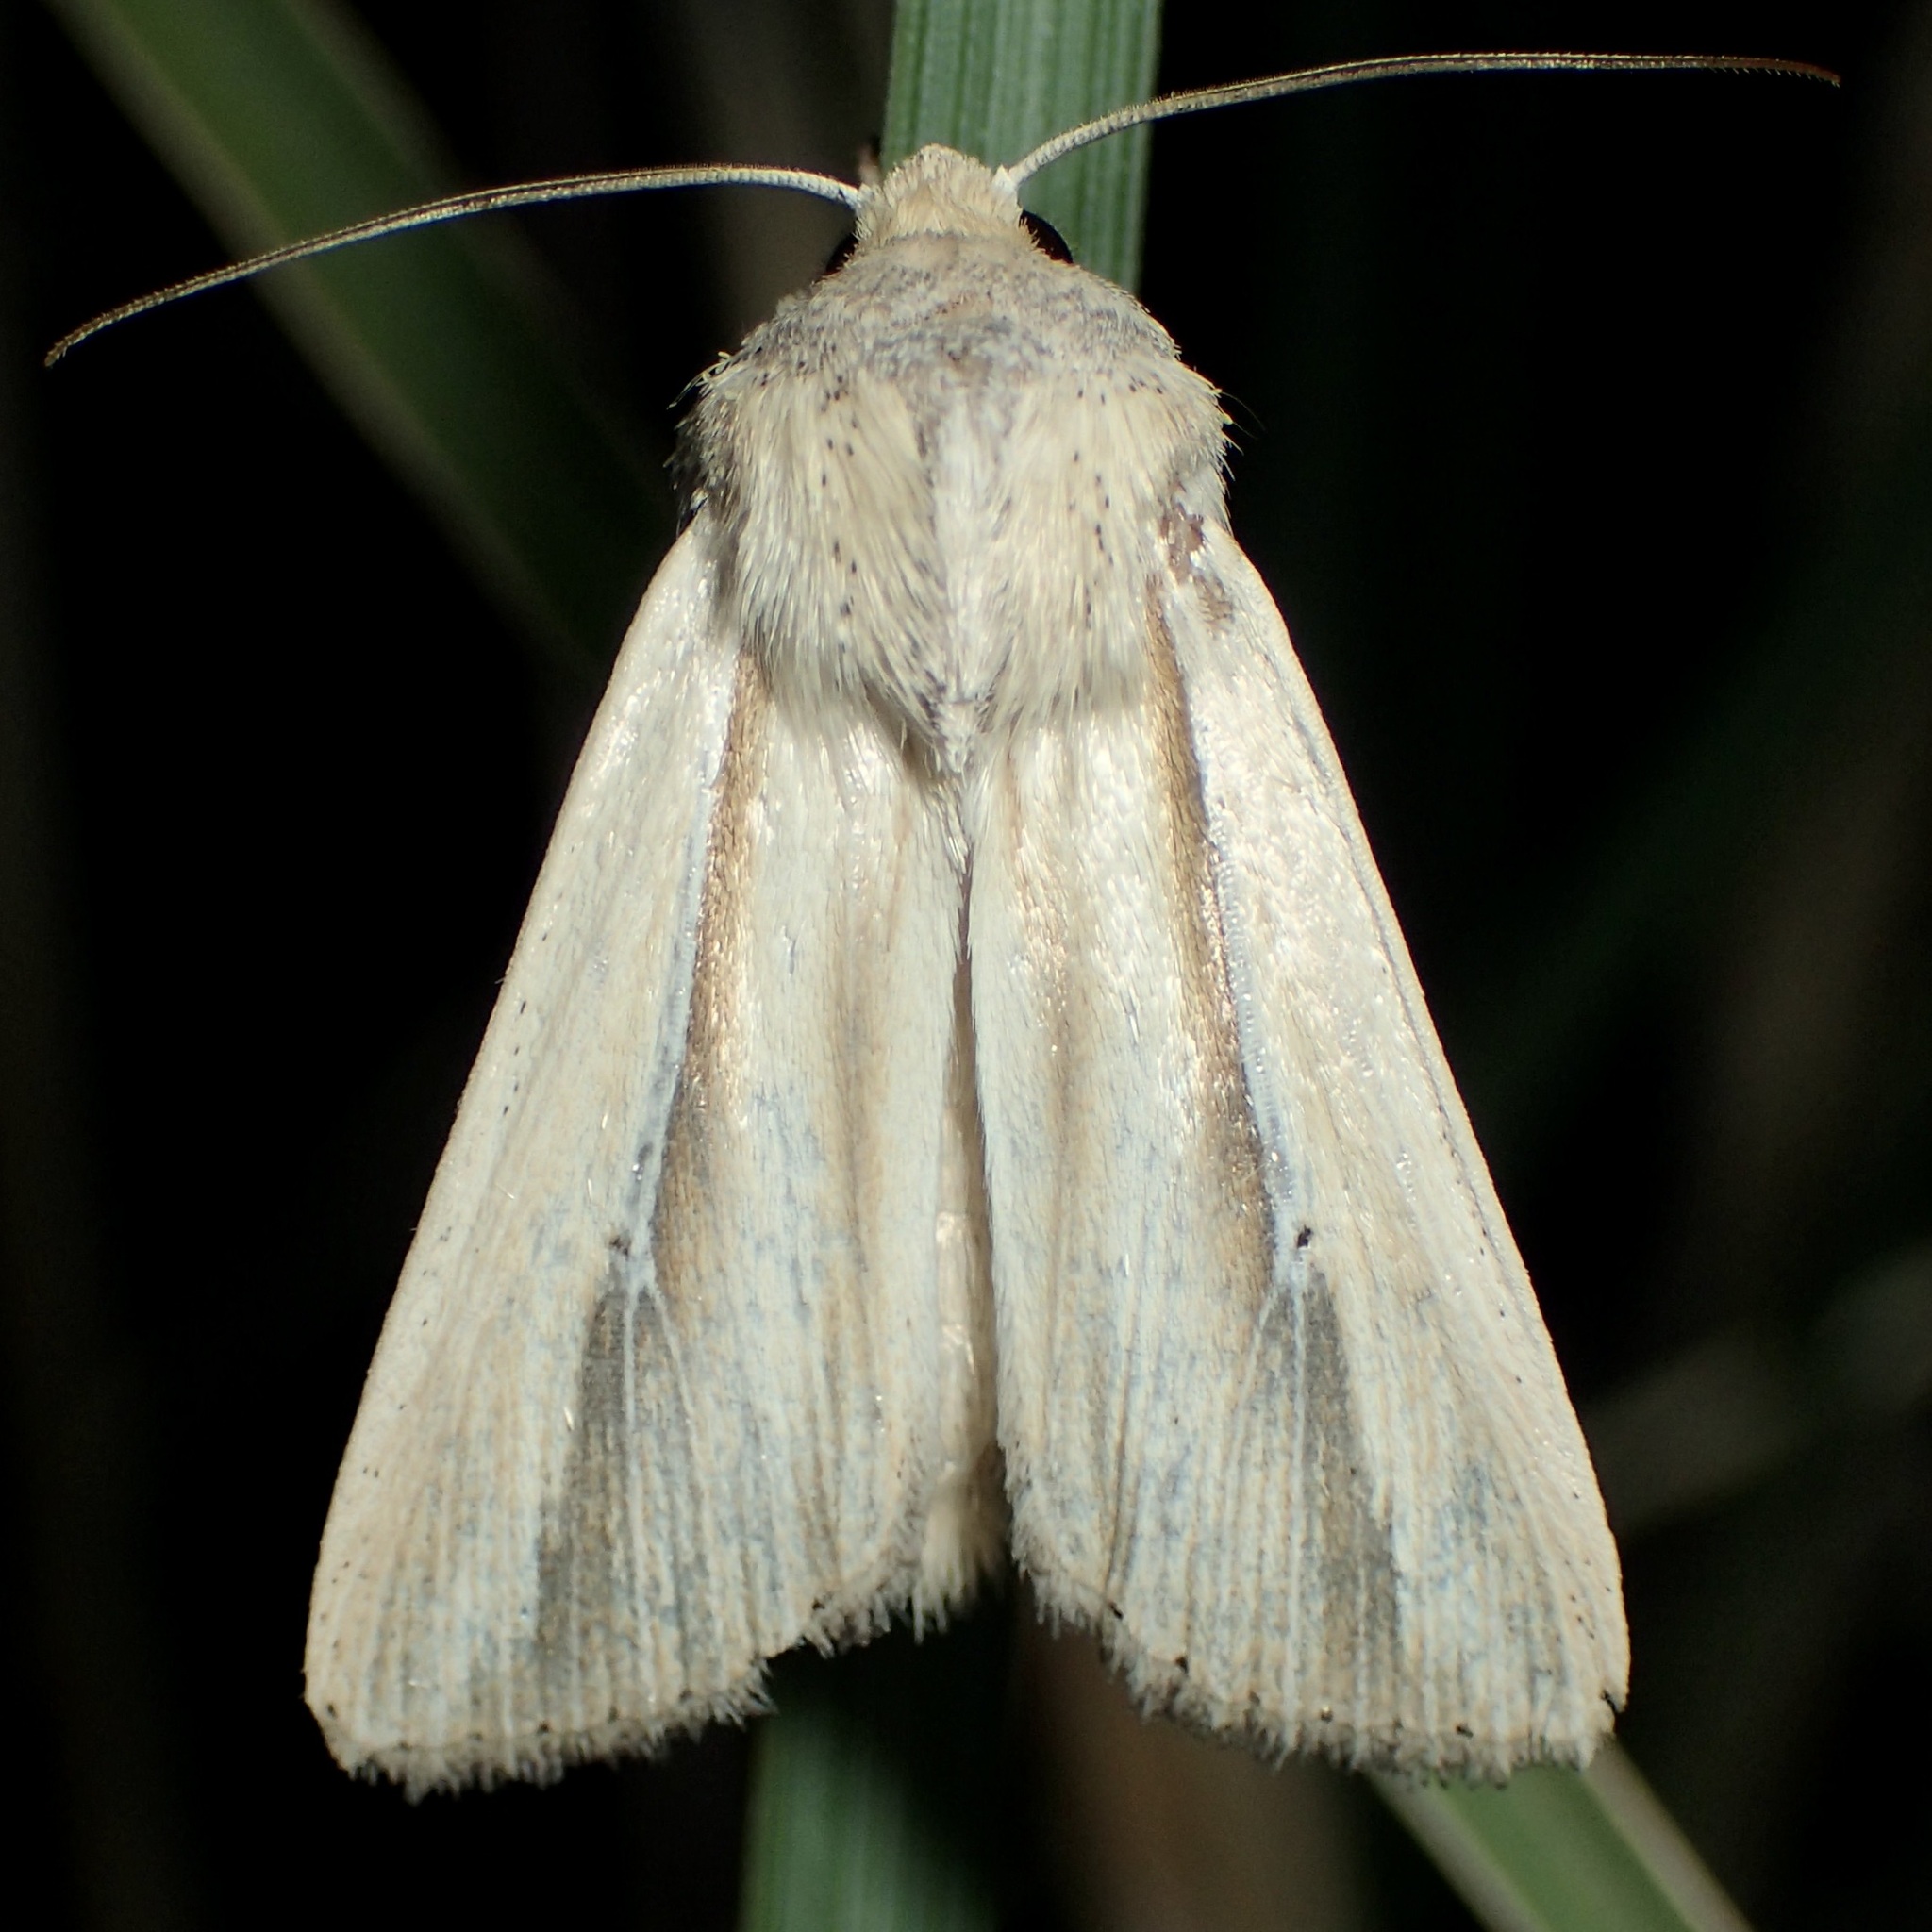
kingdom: Animalia
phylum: Arthropoda
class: Insecta
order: Lepidoptera
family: Noctuidae
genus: Leucania
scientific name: Leucania stolata
